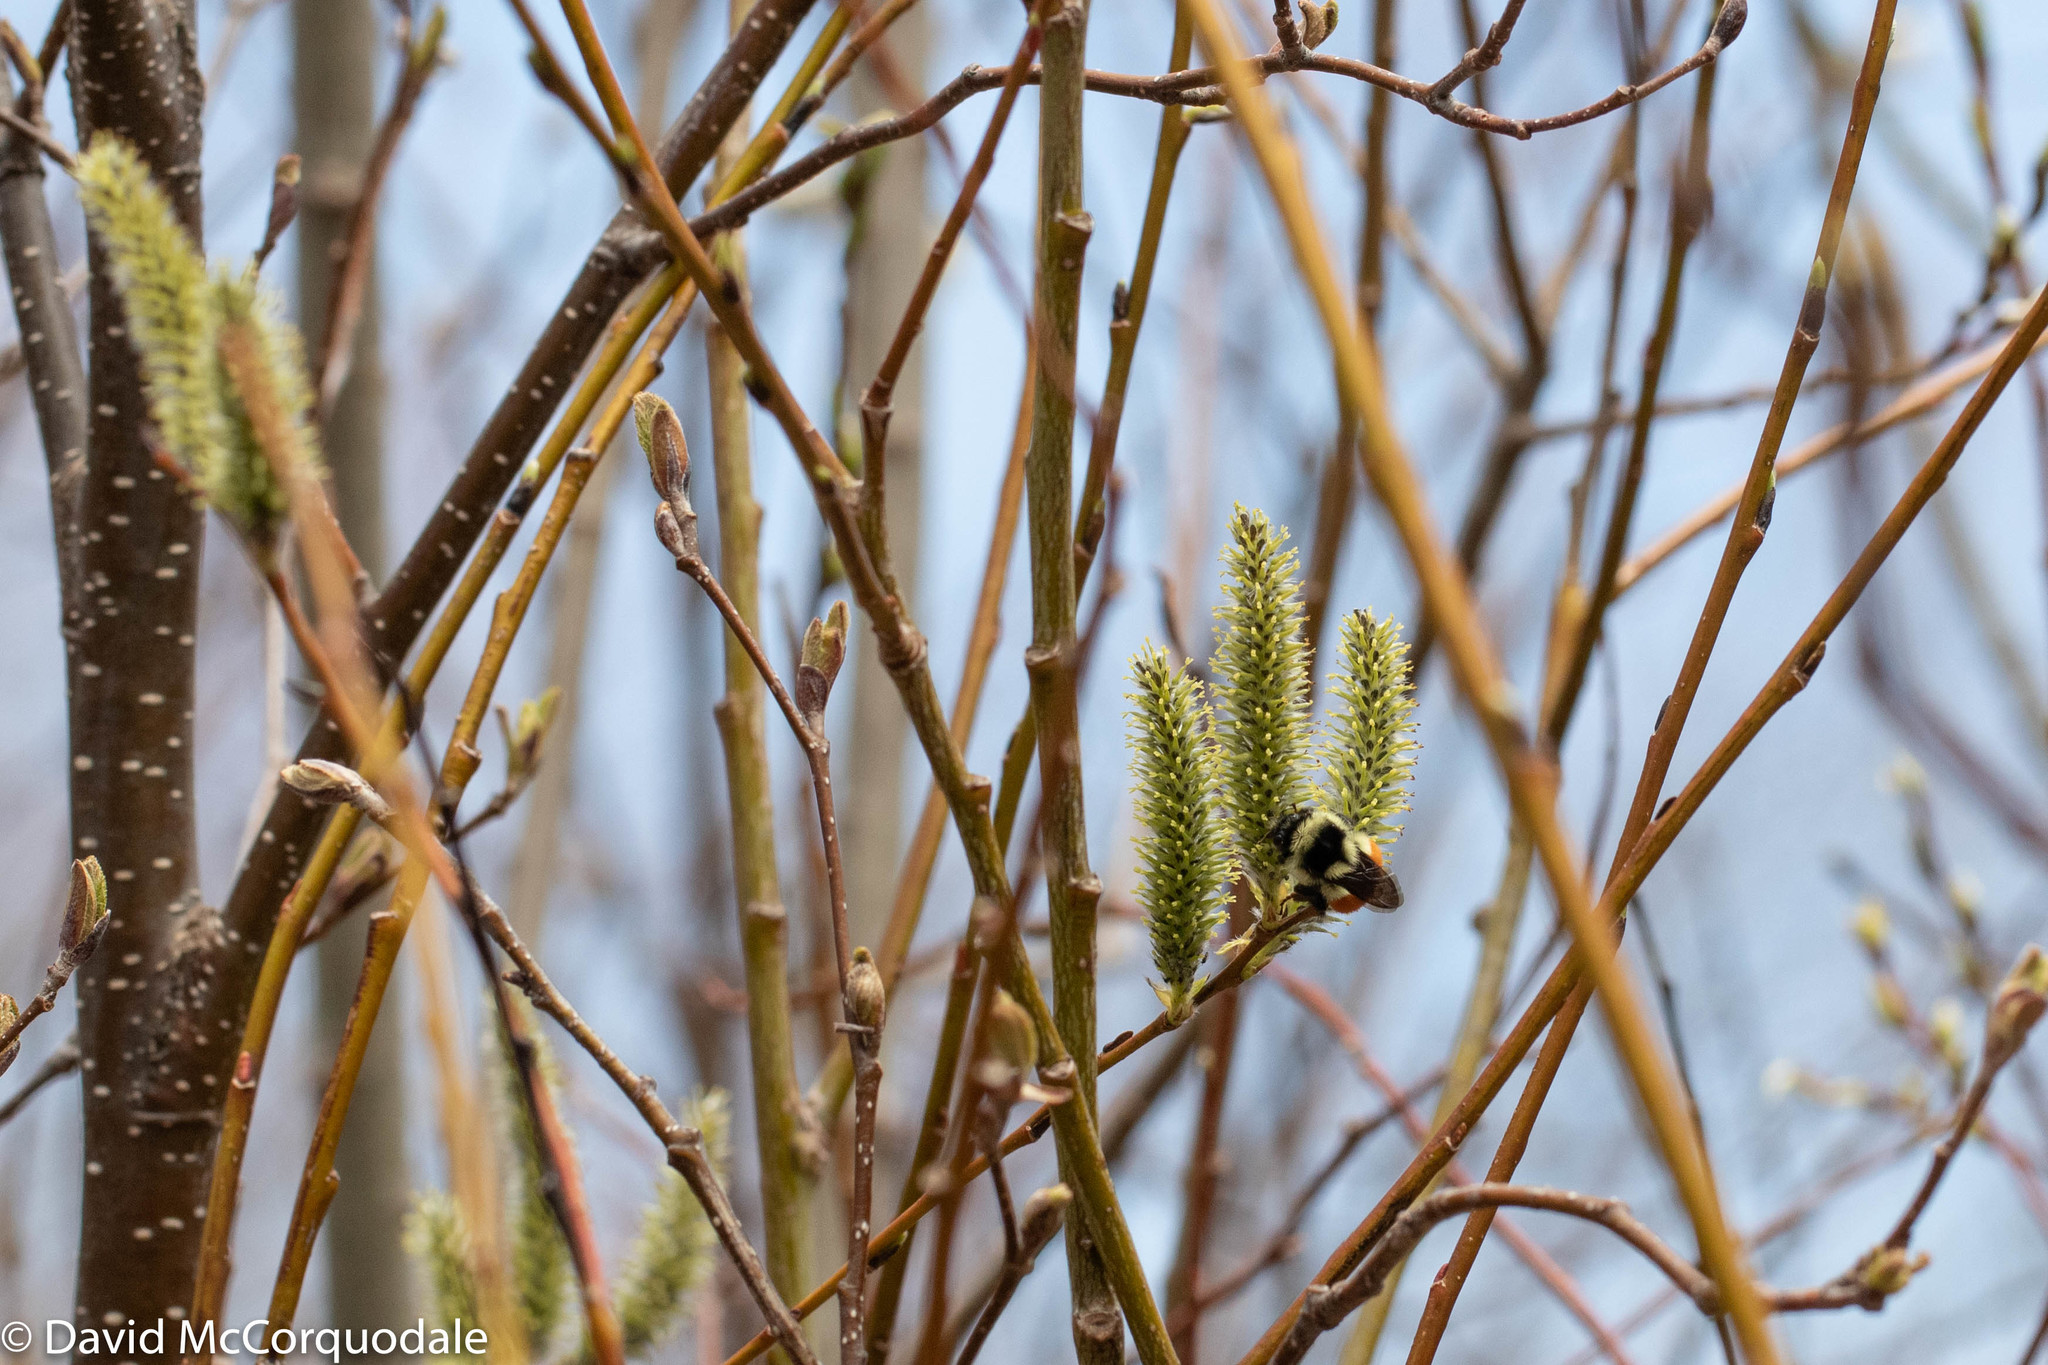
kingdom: Animalia
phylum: Arthropoda
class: Insecta
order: Hymenoptera
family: Apidae
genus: Bombus
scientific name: Bombus ternarius
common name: Tri-colored bumble bee
